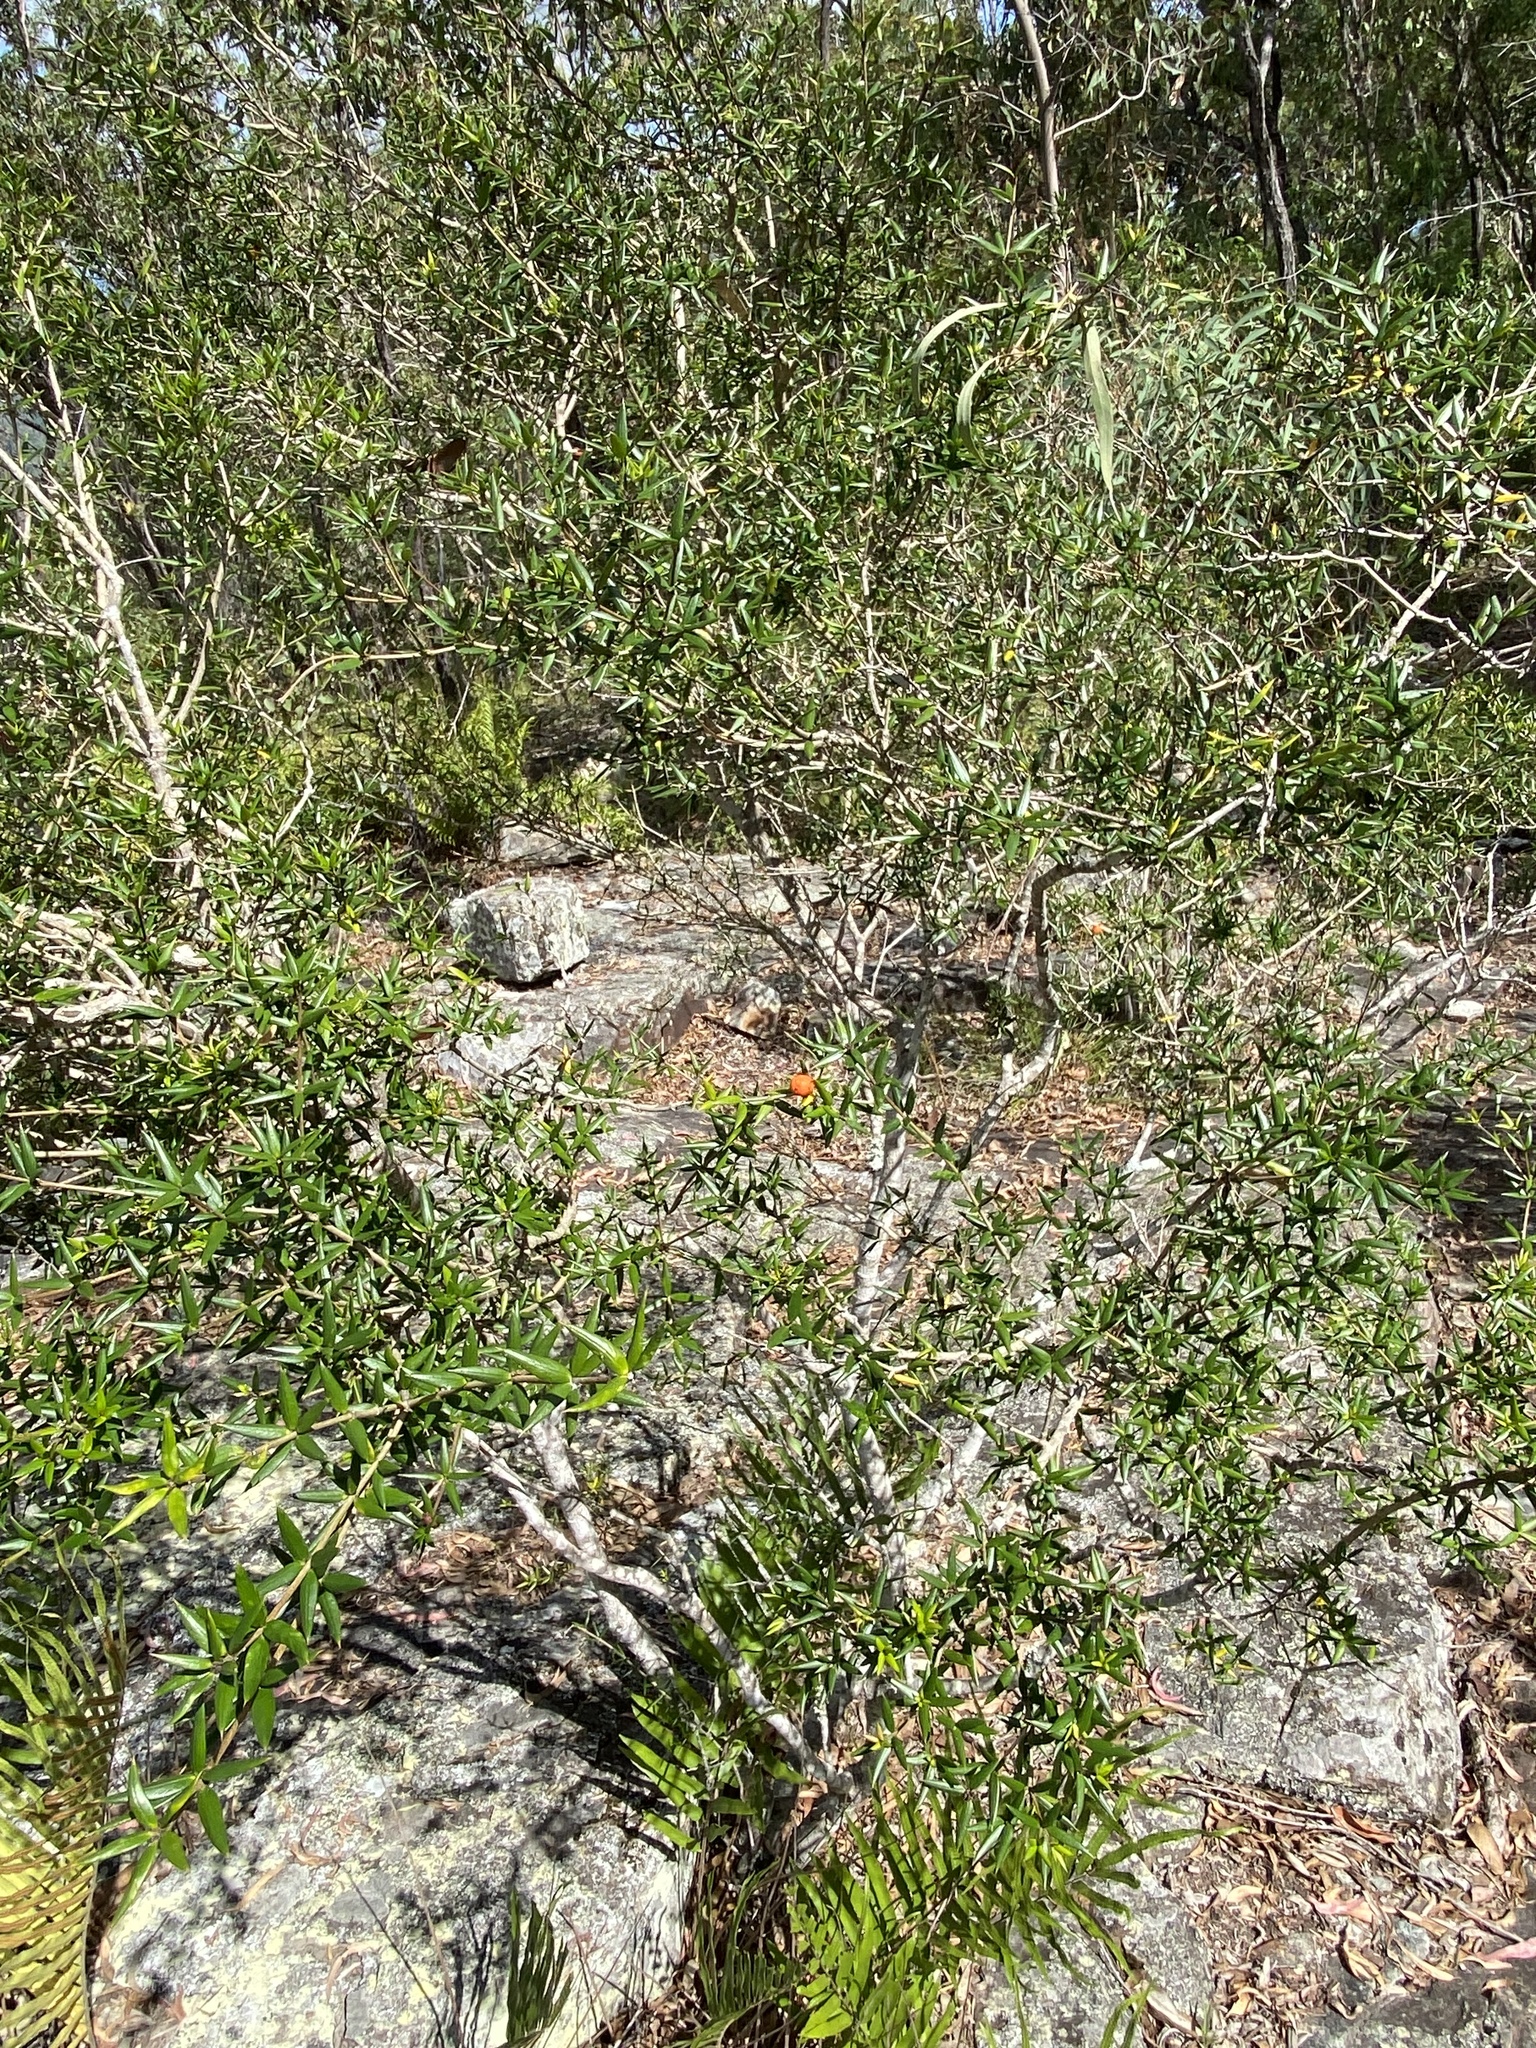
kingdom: Plantae
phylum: Tracheophyta
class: Magnoliopsida
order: Gentianales
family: Apocynaceae
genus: Alyxia
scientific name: Alyxia ruscifolia
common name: Chainfruit
